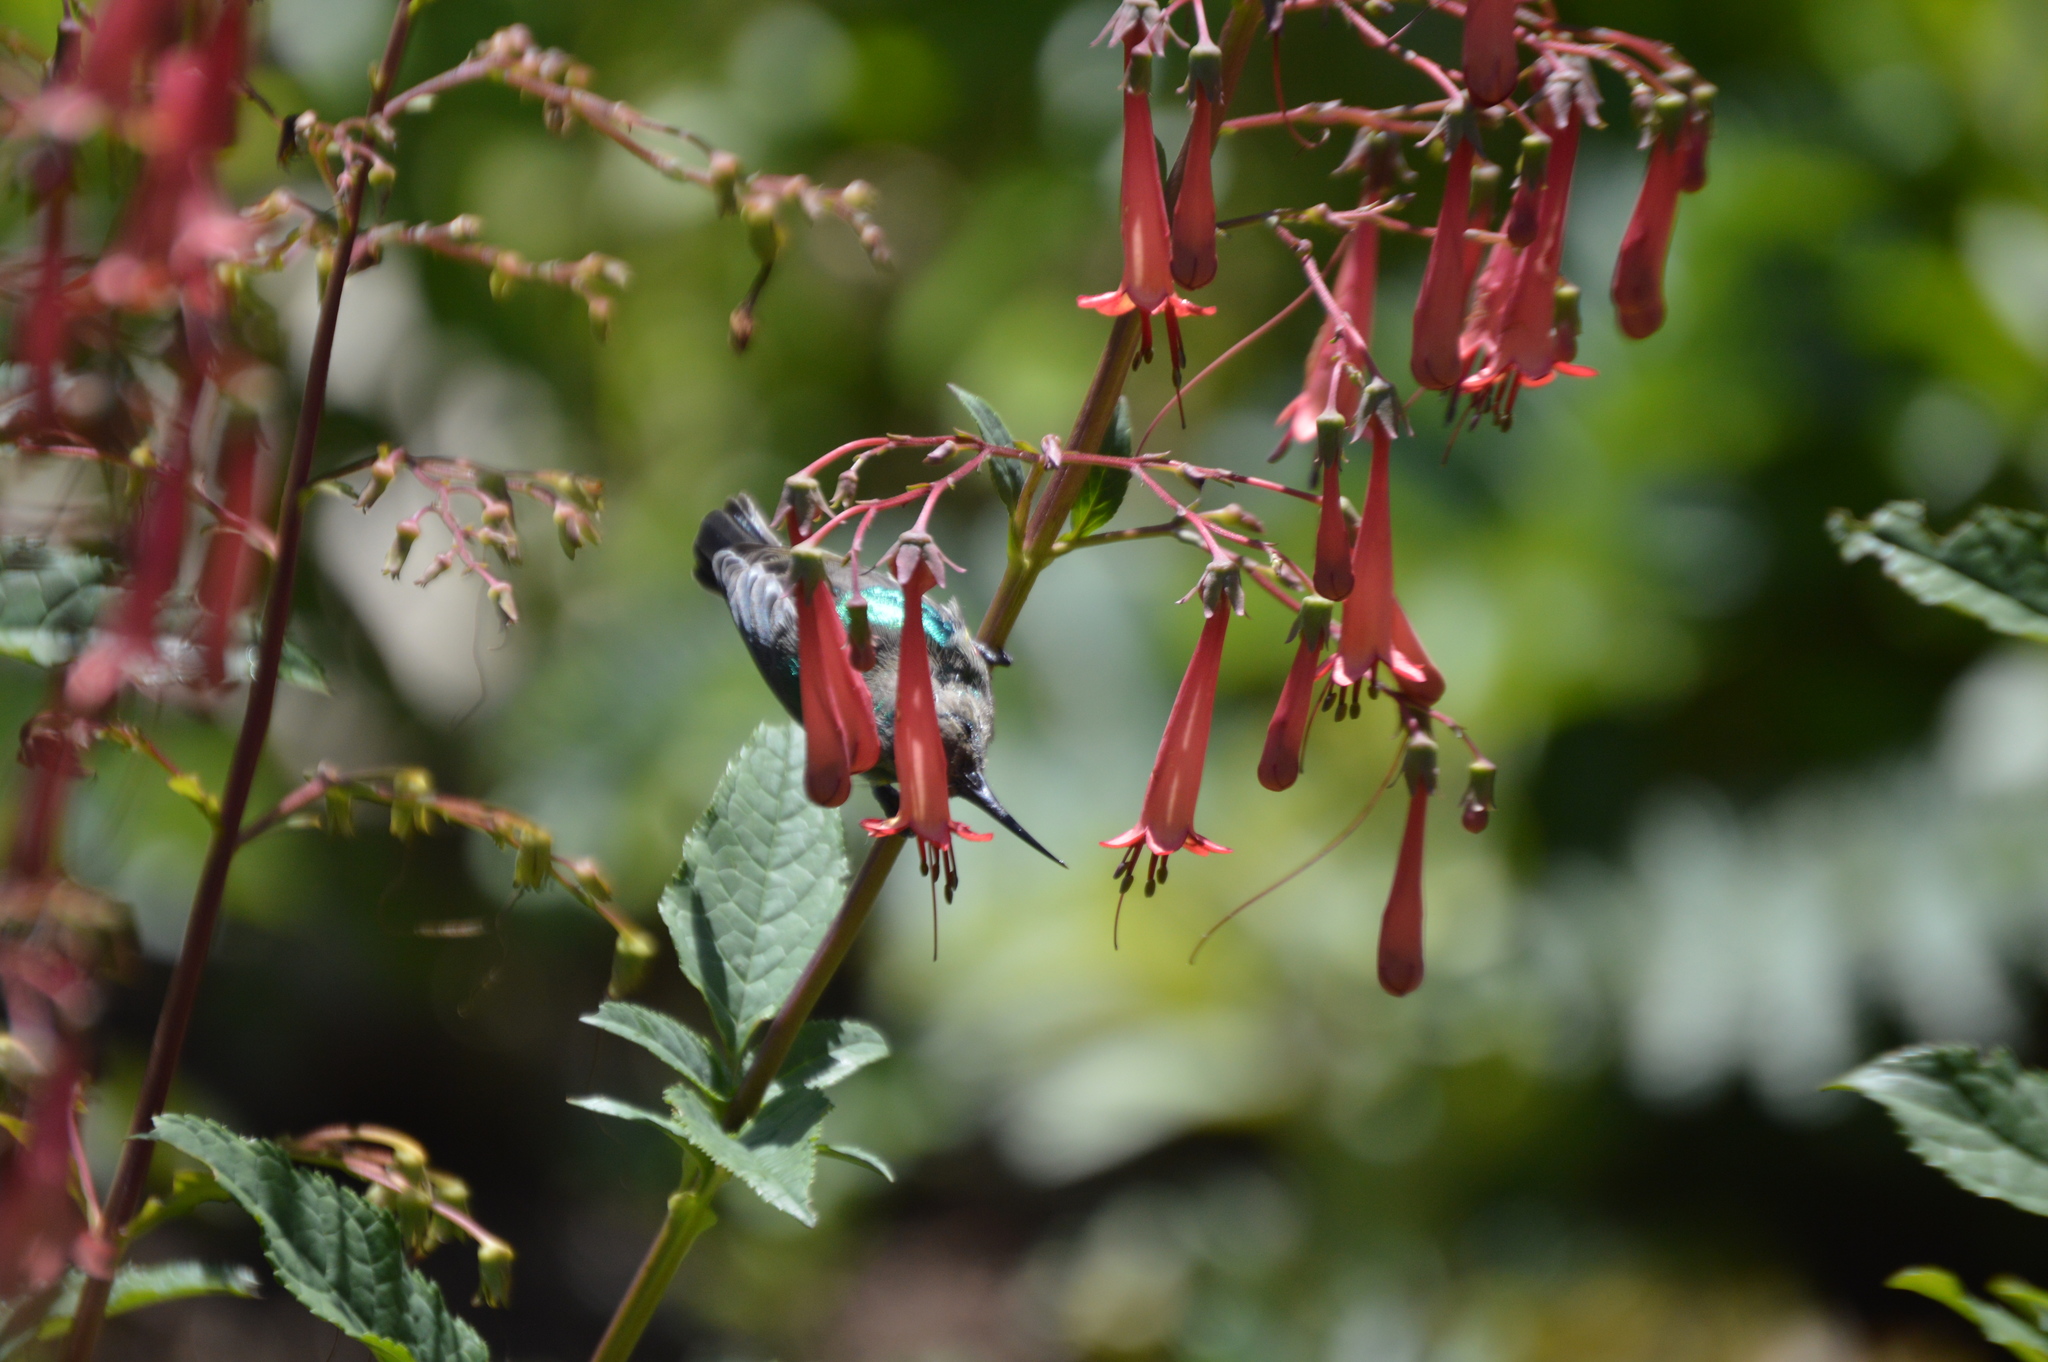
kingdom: Animalia
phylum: Chordata
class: Aves
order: Passeriformes
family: Nectariniidae
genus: Cinnyris
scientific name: Cinnyris chalybeus
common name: Southern double-collared sunbird
